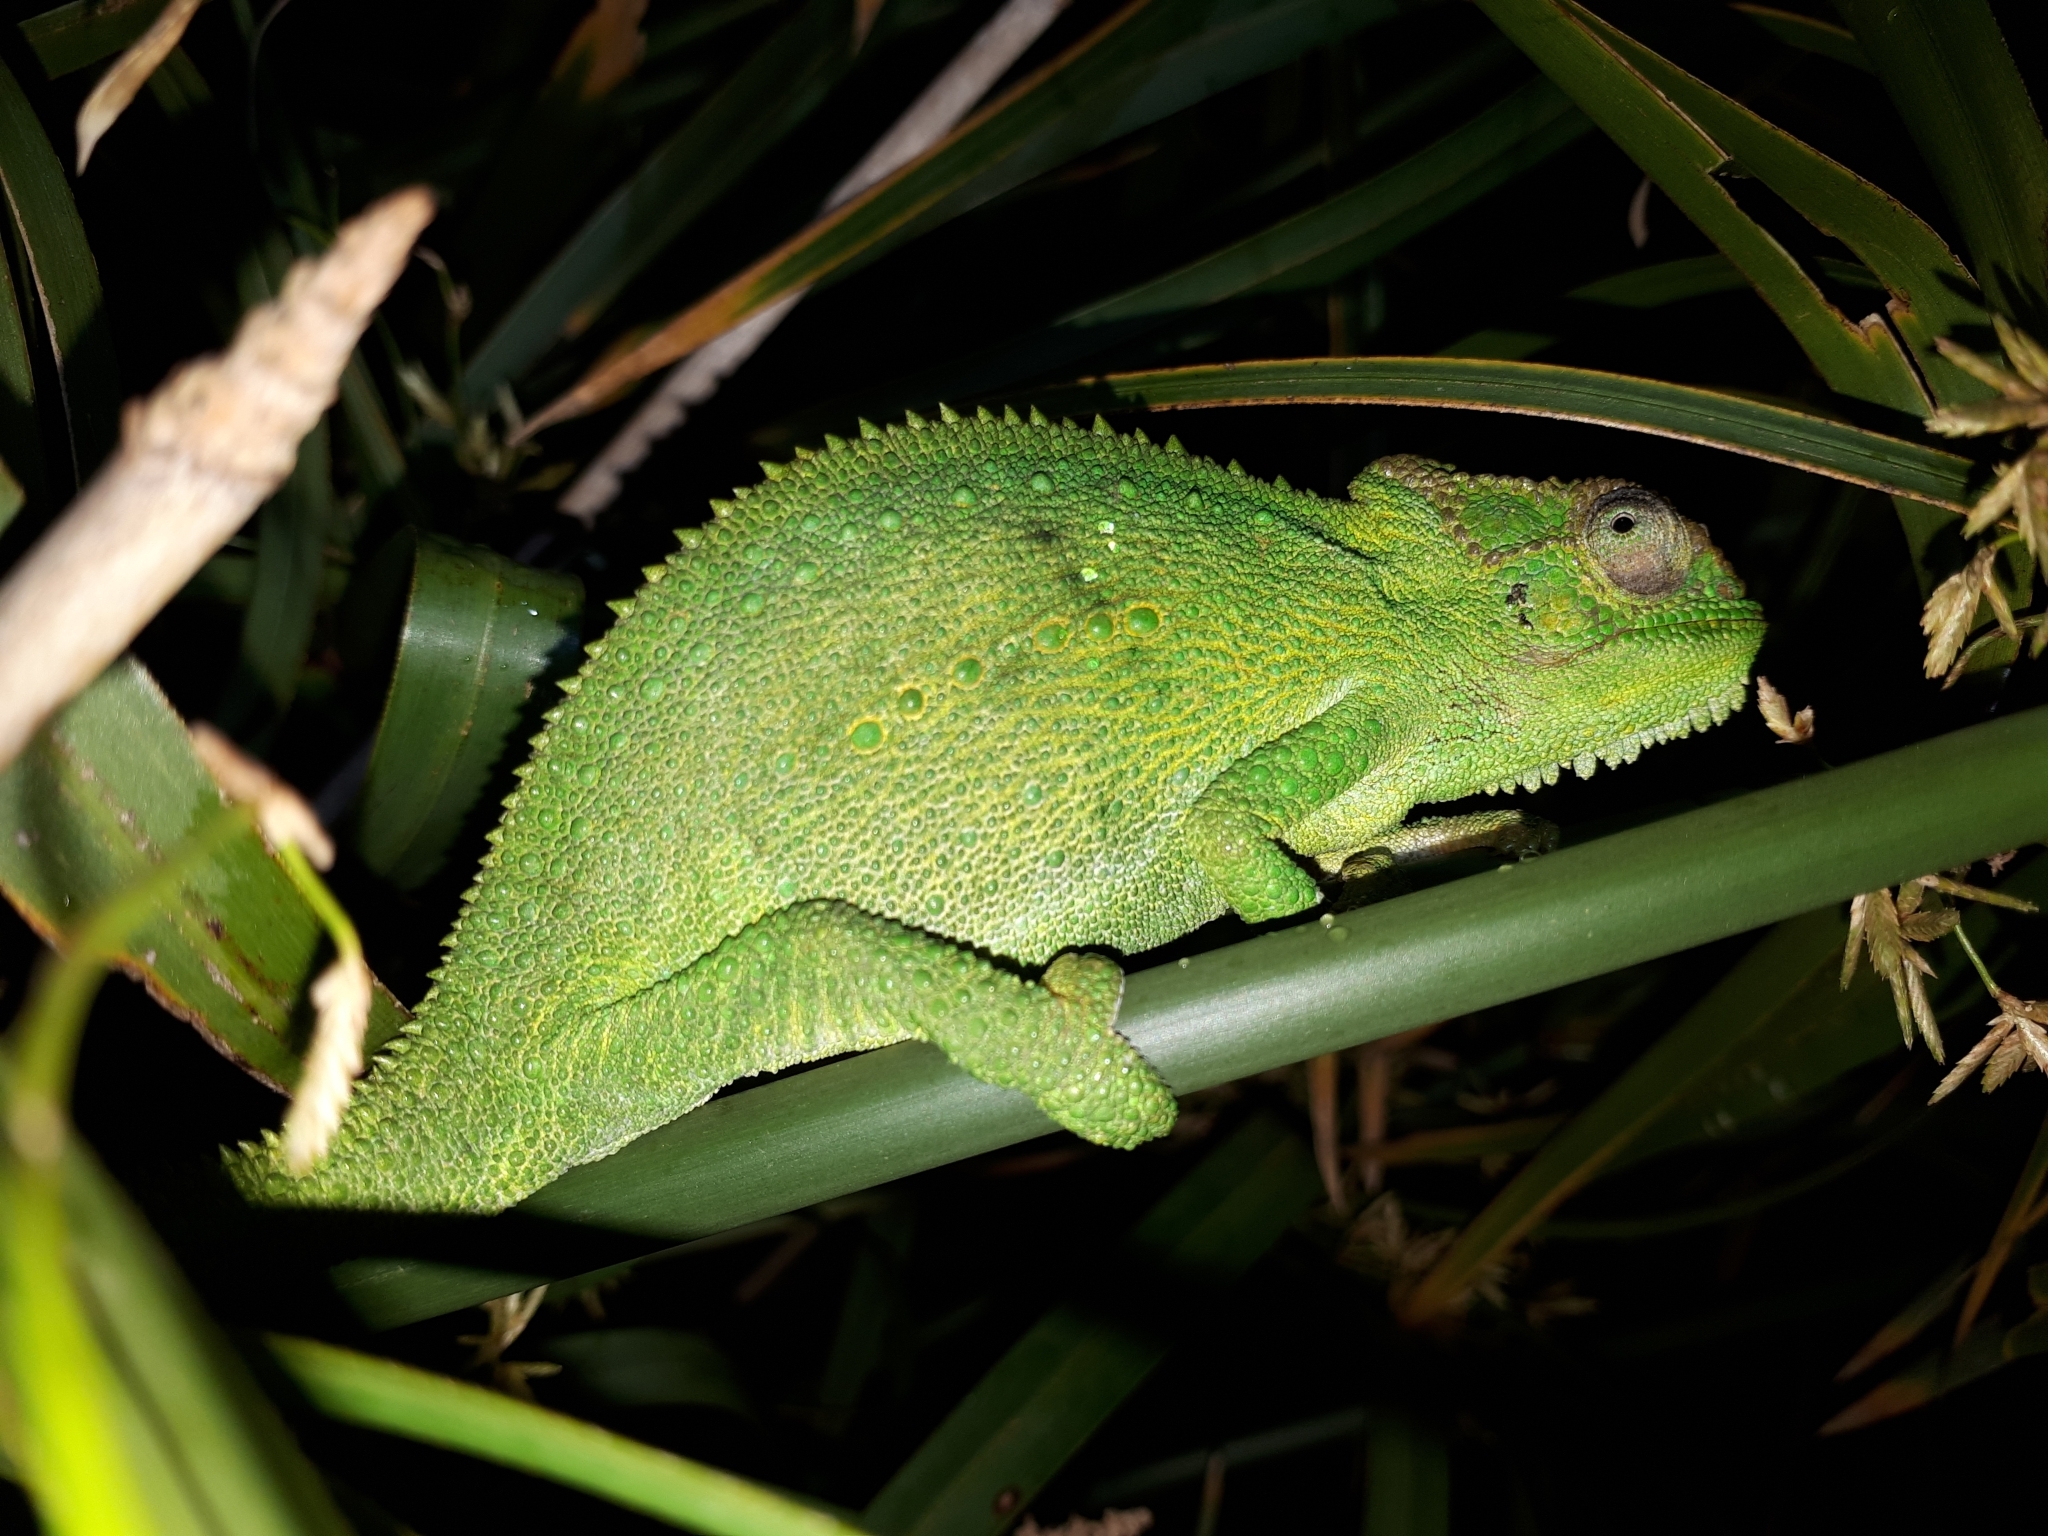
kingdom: Animalia
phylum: Chordata
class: Squamata
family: Chamaeleonidae
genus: Bradypodion
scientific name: Bradypodion pumilum
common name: Cape dwarf chameleon
